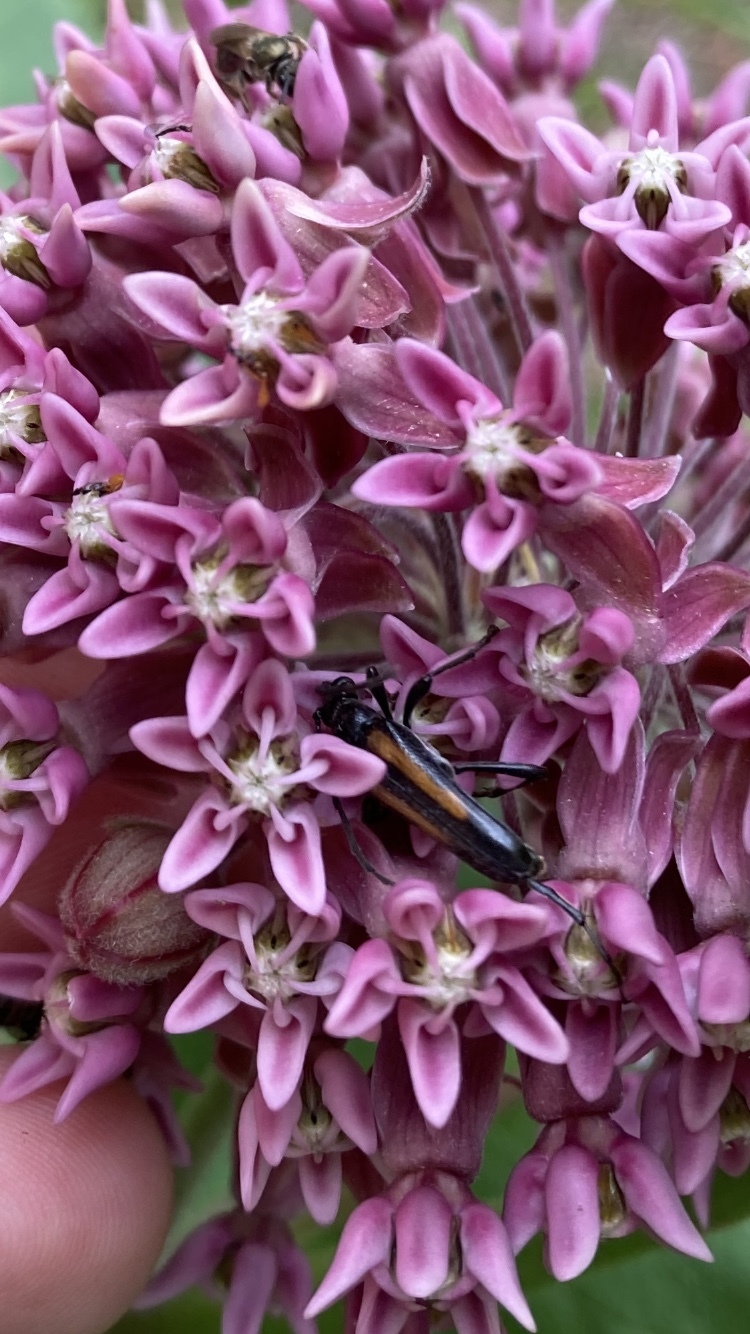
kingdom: Animalia
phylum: Arthropoda
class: Insecta
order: Coleoptera
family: Cerambycidae
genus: Strangalepta
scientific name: Strangalepta abbreviata
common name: Strangalepta flower longhorn beetle
